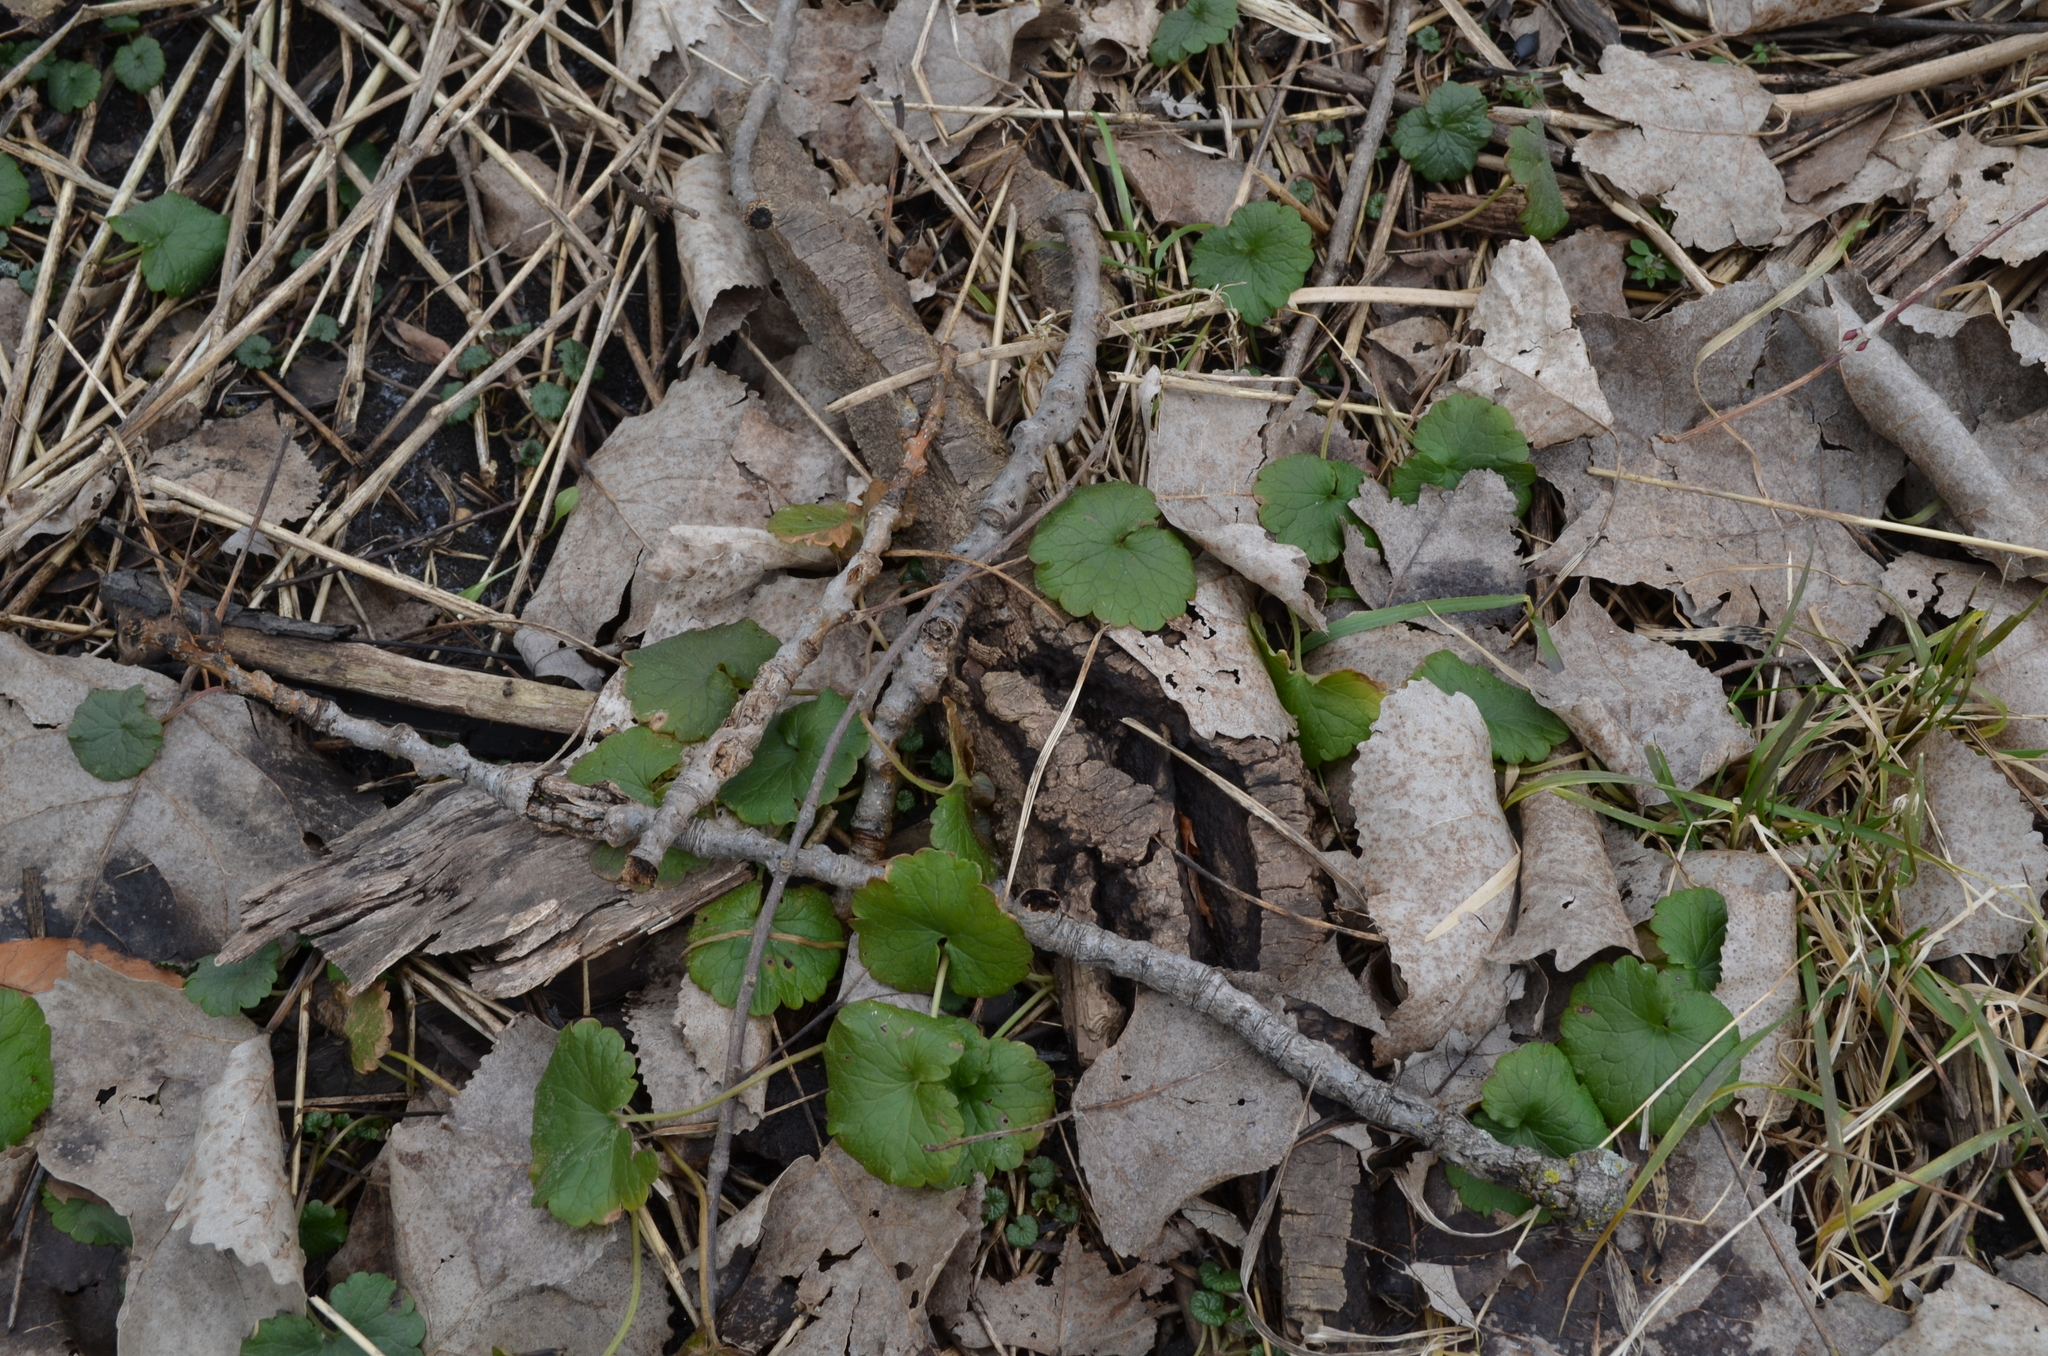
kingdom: Plantae
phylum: Tracheophyta
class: Magnoliopsida
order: Lamiales
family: Lamiaceae
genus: Glechoma
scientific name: Glechoma hederacea
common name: Ground ivy
